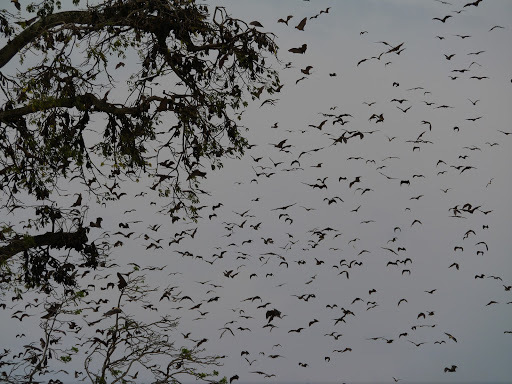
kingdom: Animalia
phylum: Chordata
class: Mammalia
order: Chiroptera
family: Pteropodidae
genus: Eidolon
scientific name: Eidolon helvum
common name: Straw-colored fruit bat
